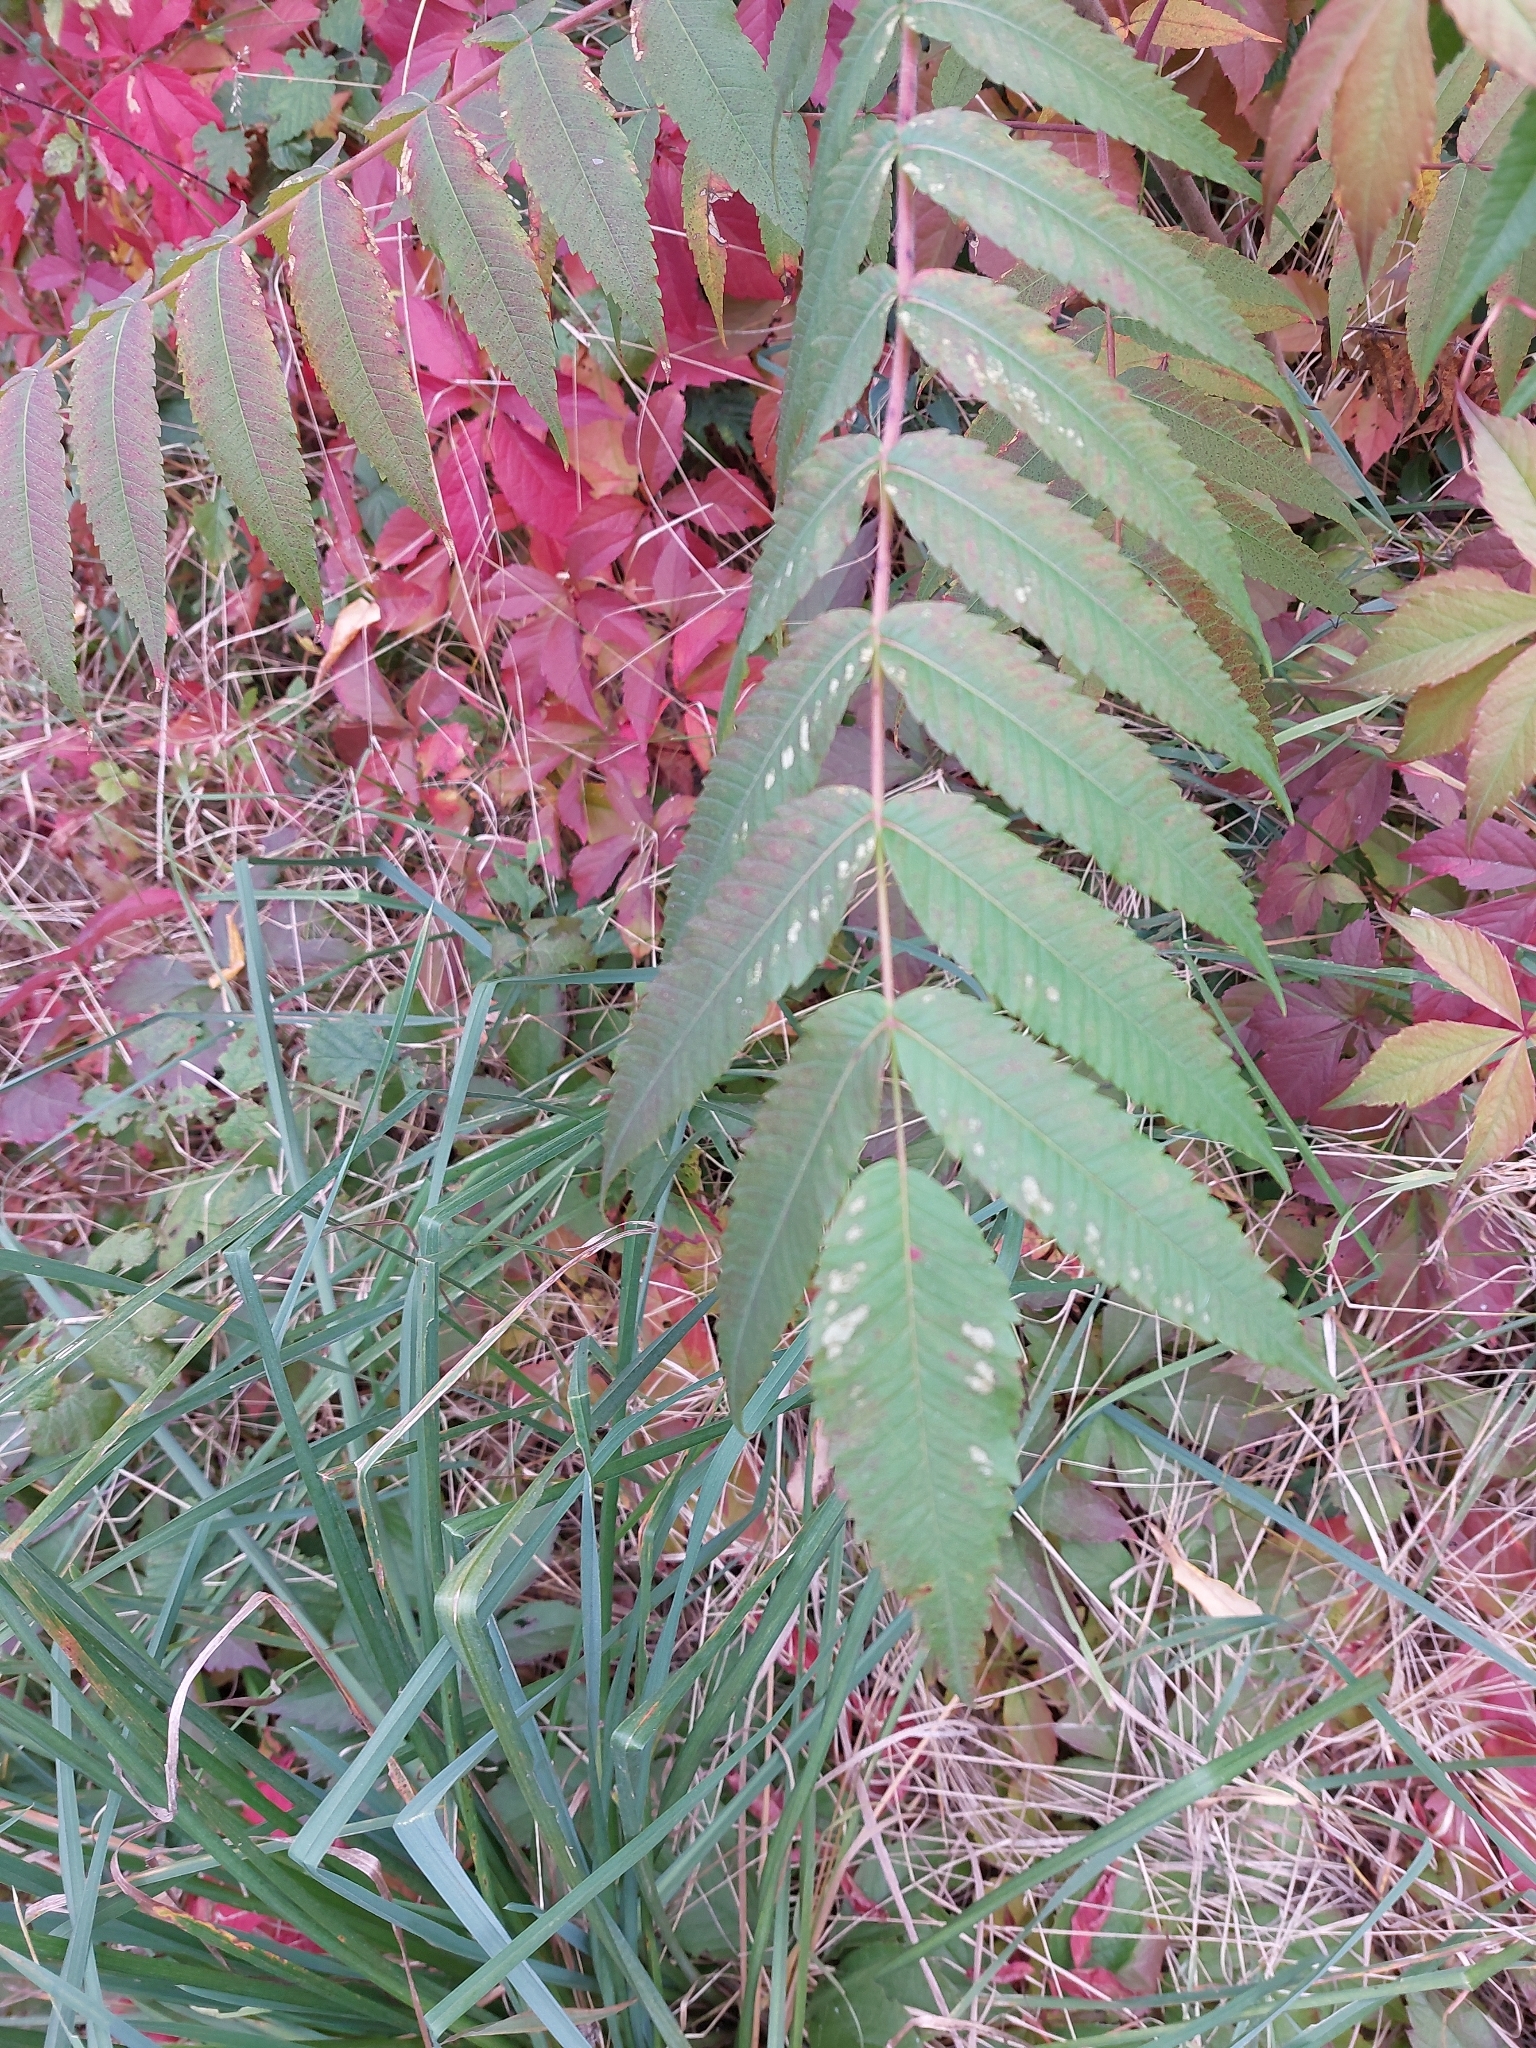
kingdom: Plantae
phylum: Tracheophyta
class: Magnoliopsida
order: Sapindales
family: Anacardiaceae
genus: Rhus
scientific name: Rhus typhina
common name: Staghorn sumac
